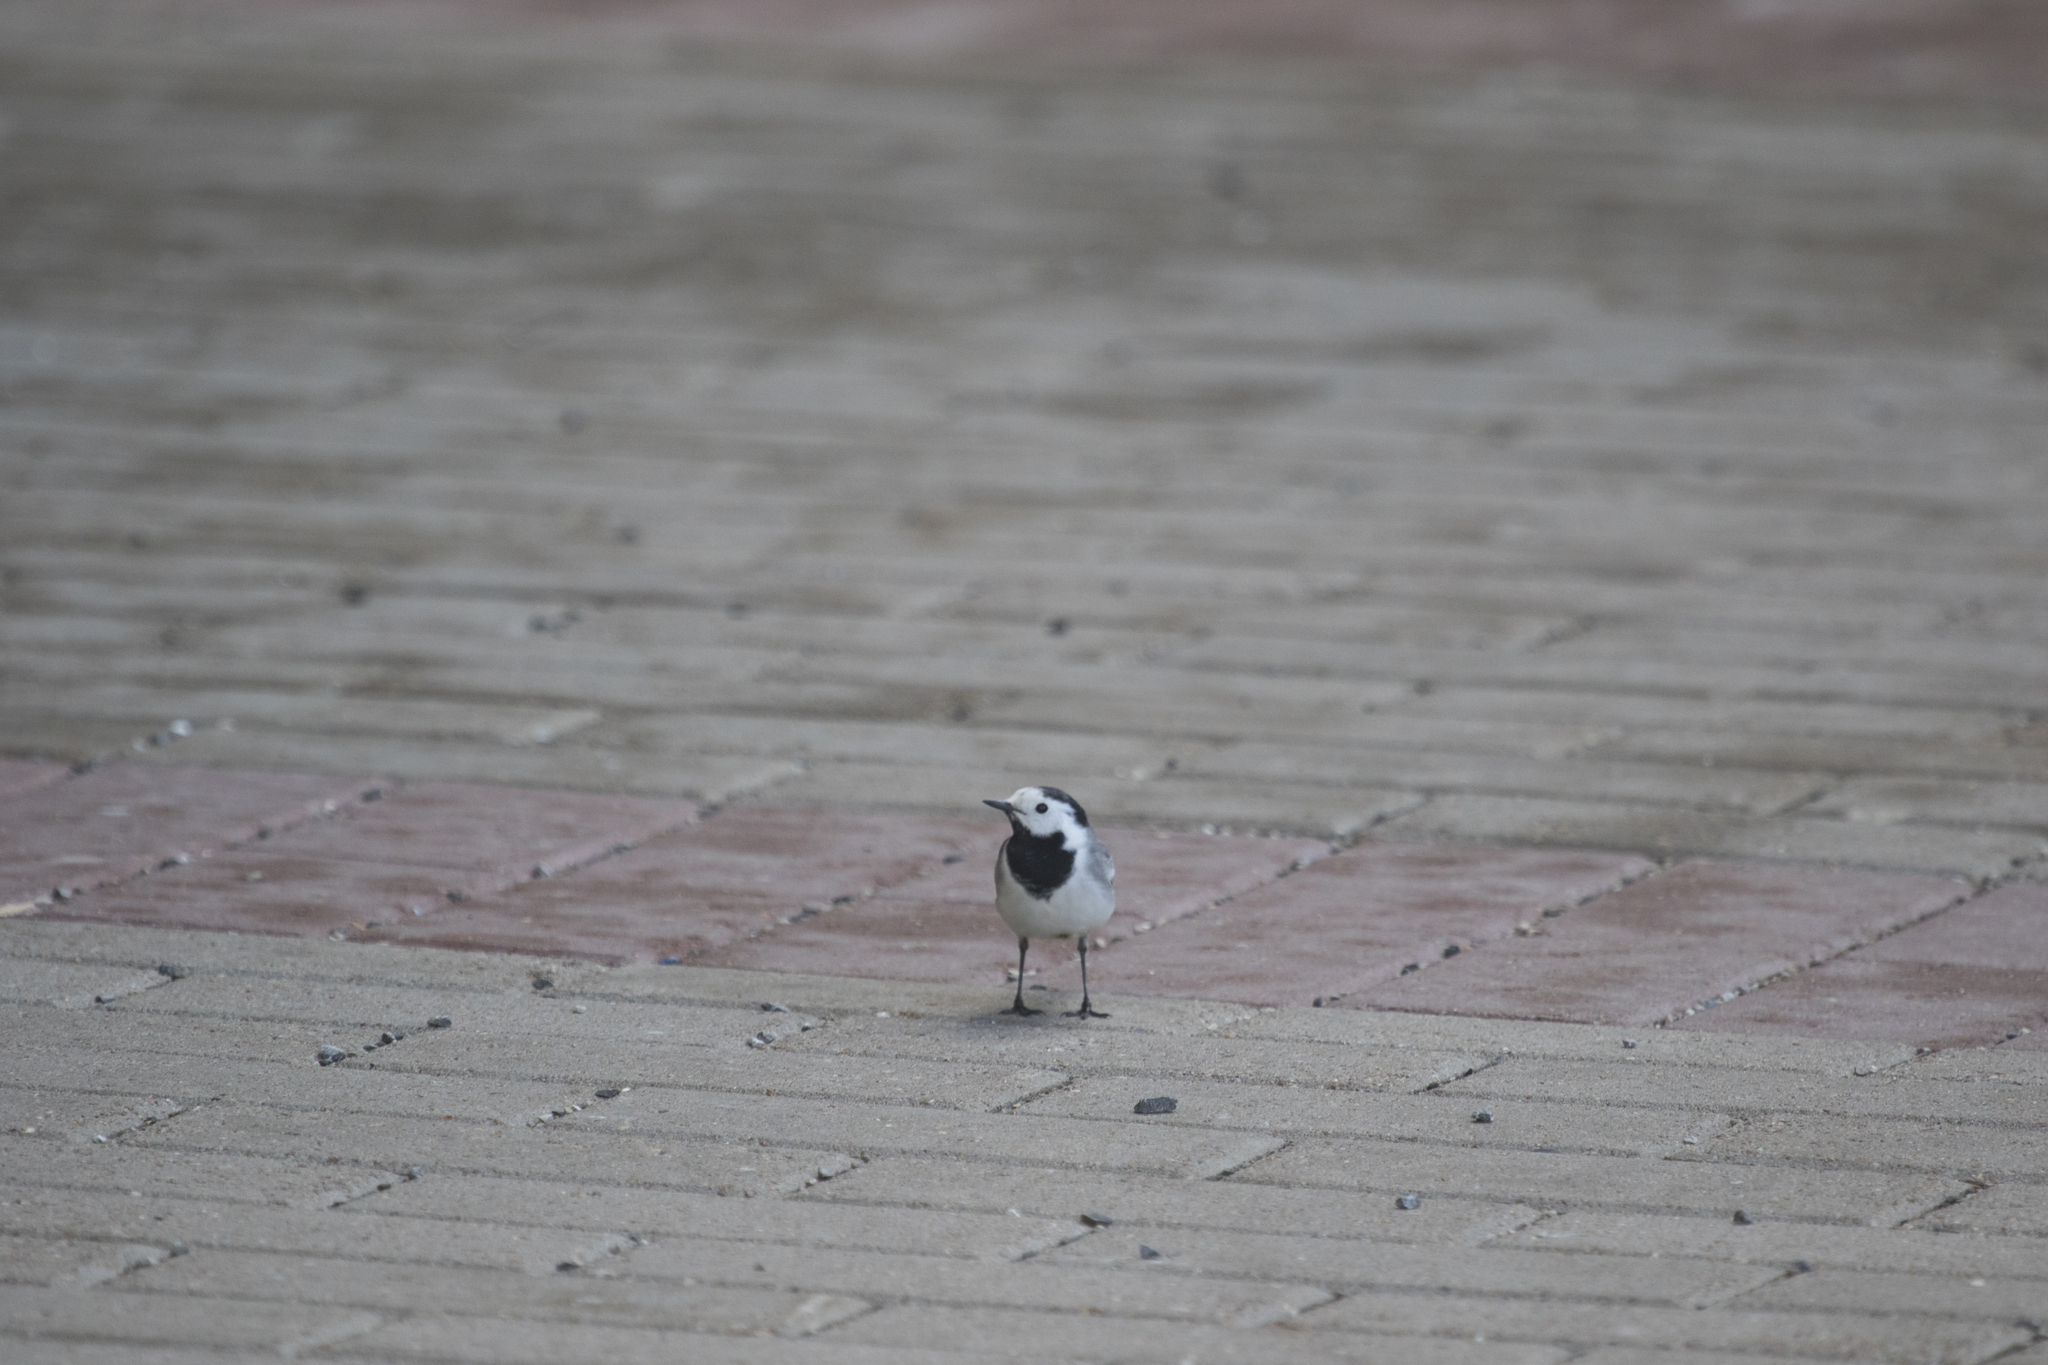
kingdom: Animalia
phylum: Chordata
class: Aves
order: Passeriformes
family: Motacillidae
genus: Motacilla
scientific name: Motacilla alba
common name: White wagtail
